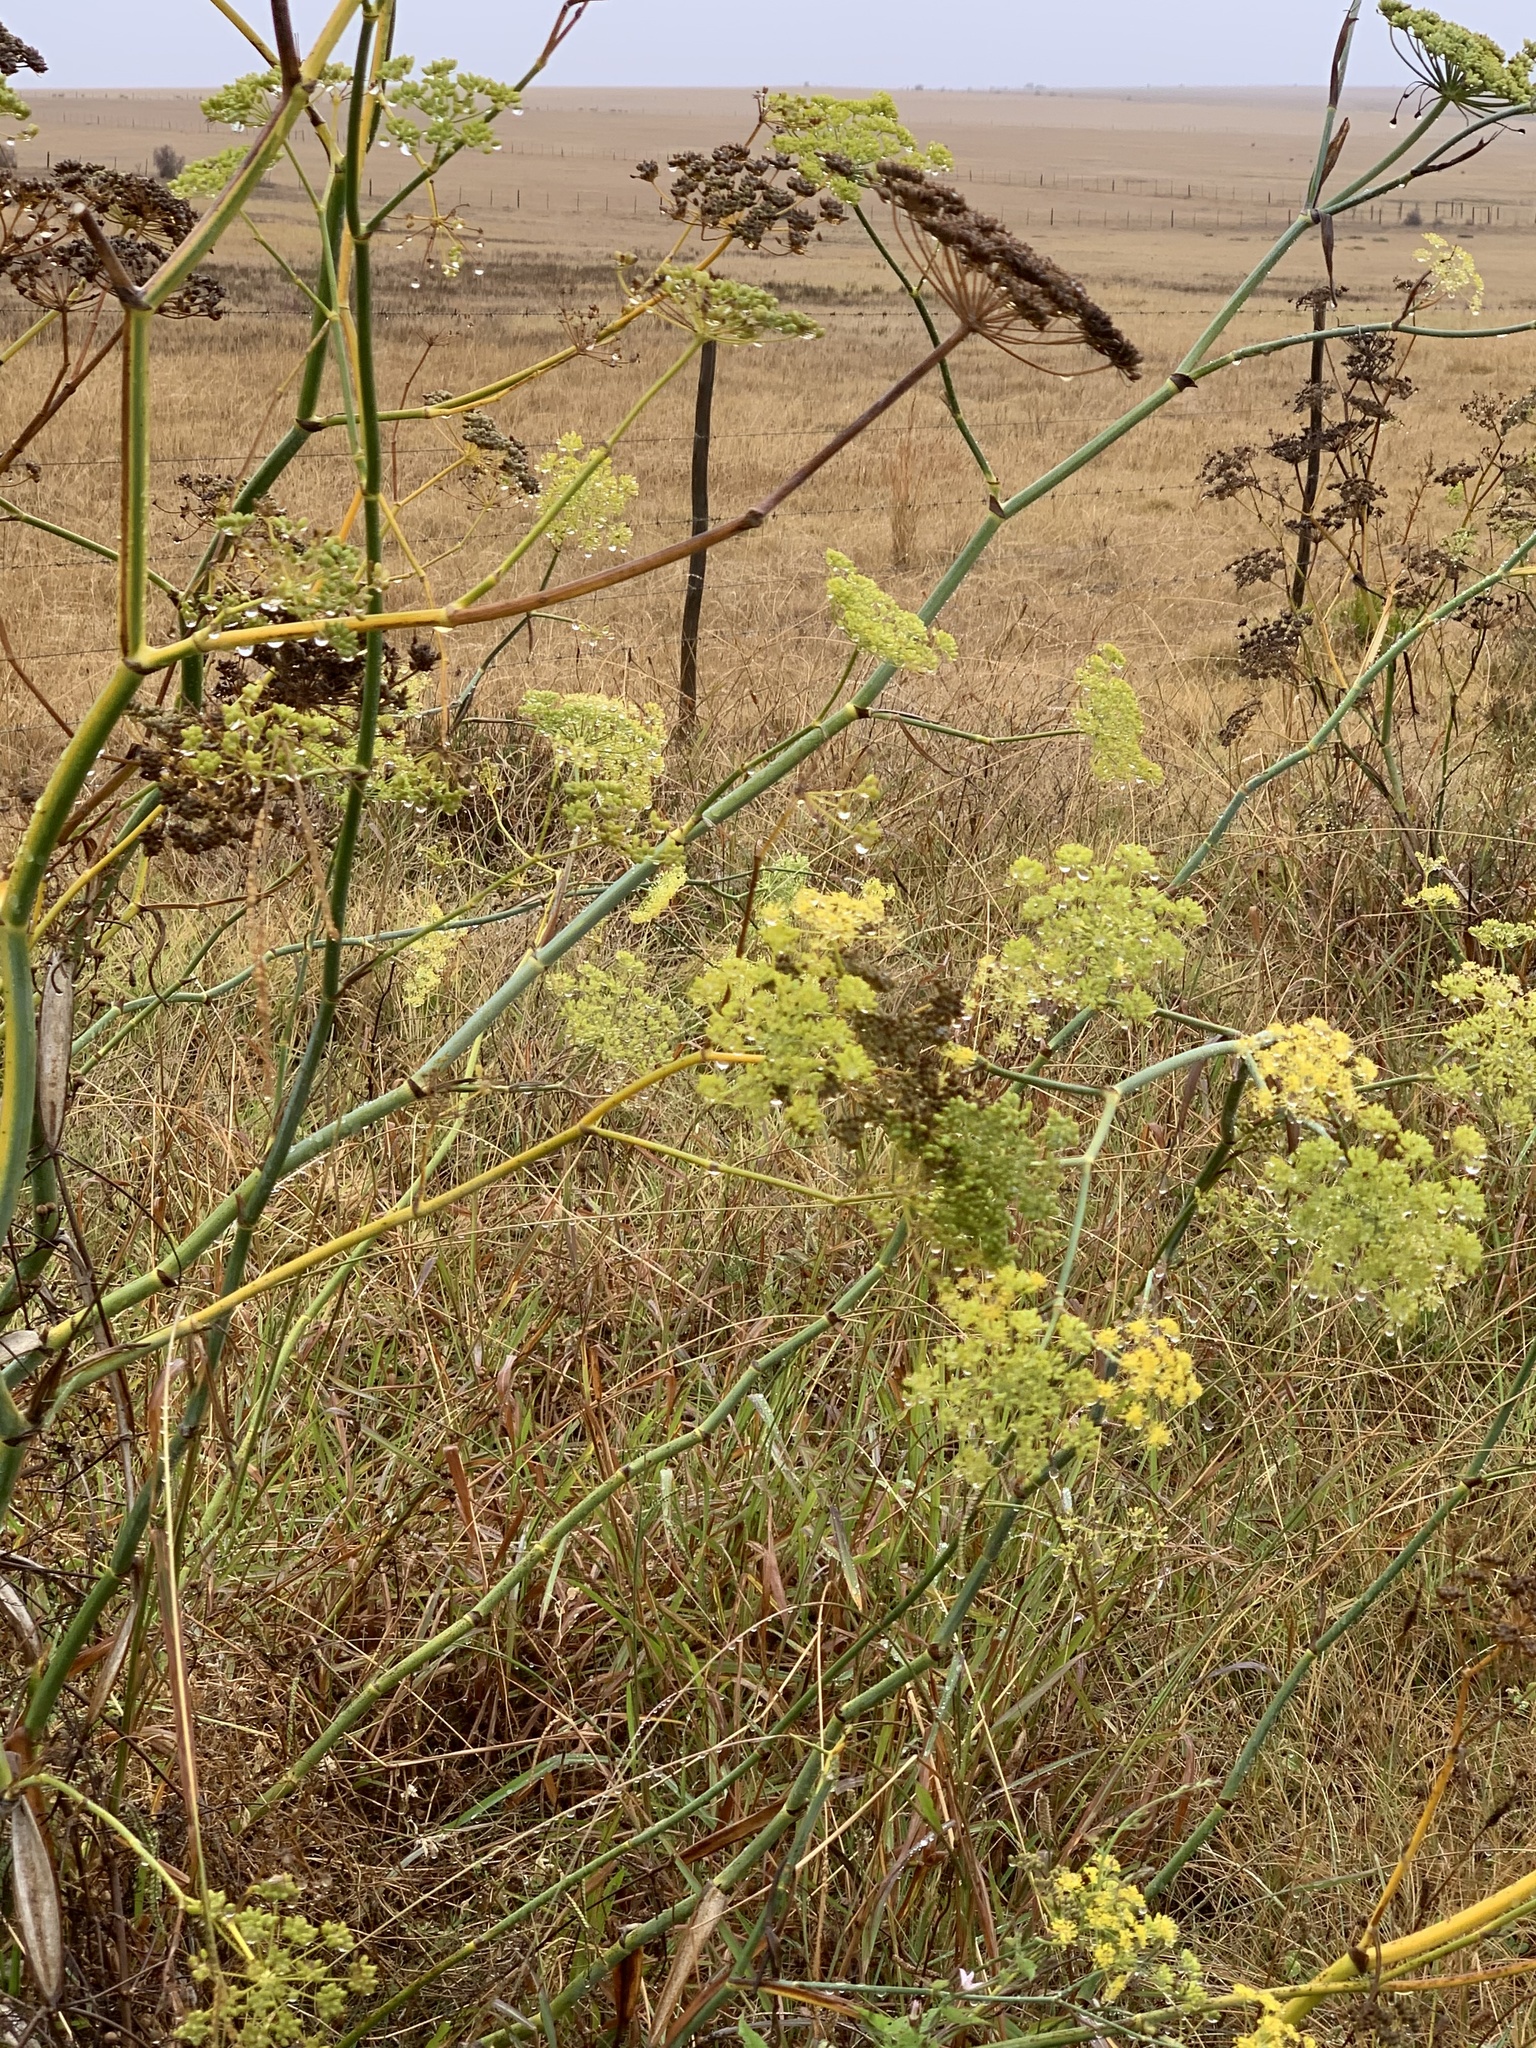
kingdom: Plantae
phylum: Tracheophyta
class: Magnoliopsida
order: Apiales
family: Apiaceae
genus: Foeniculum
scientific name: Foeniculum vulgare
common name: Fennel
